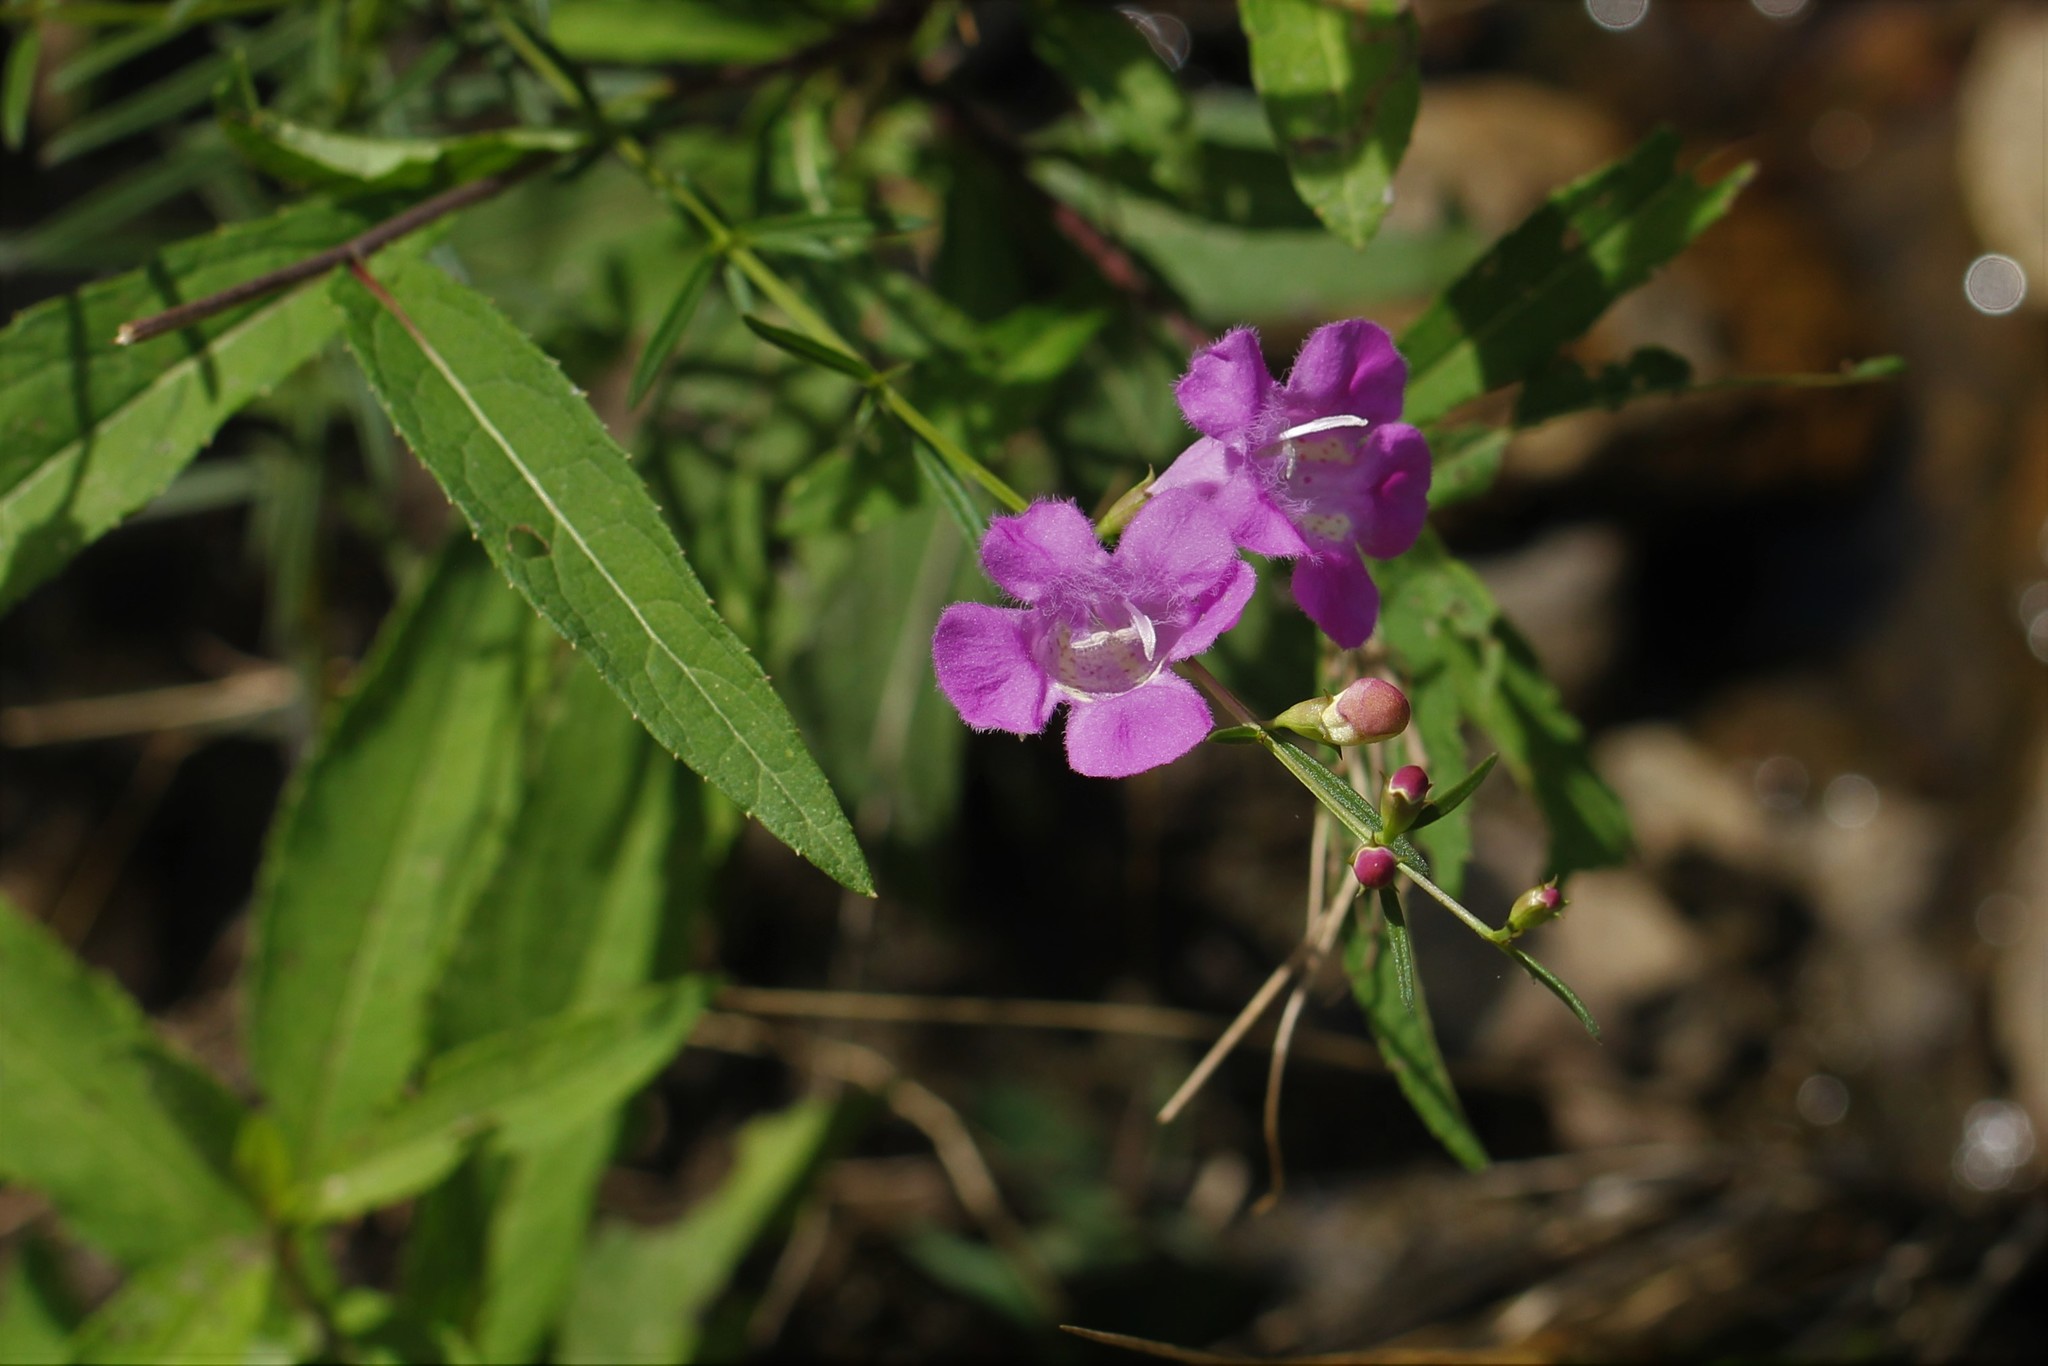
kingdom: Plantae
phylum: Tracheophyta
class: Magnoliopsida
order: Lamiales
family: Orobanchaceae
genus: Agalinis
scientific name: Agalinis purpurea
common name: Purple false foxglove
